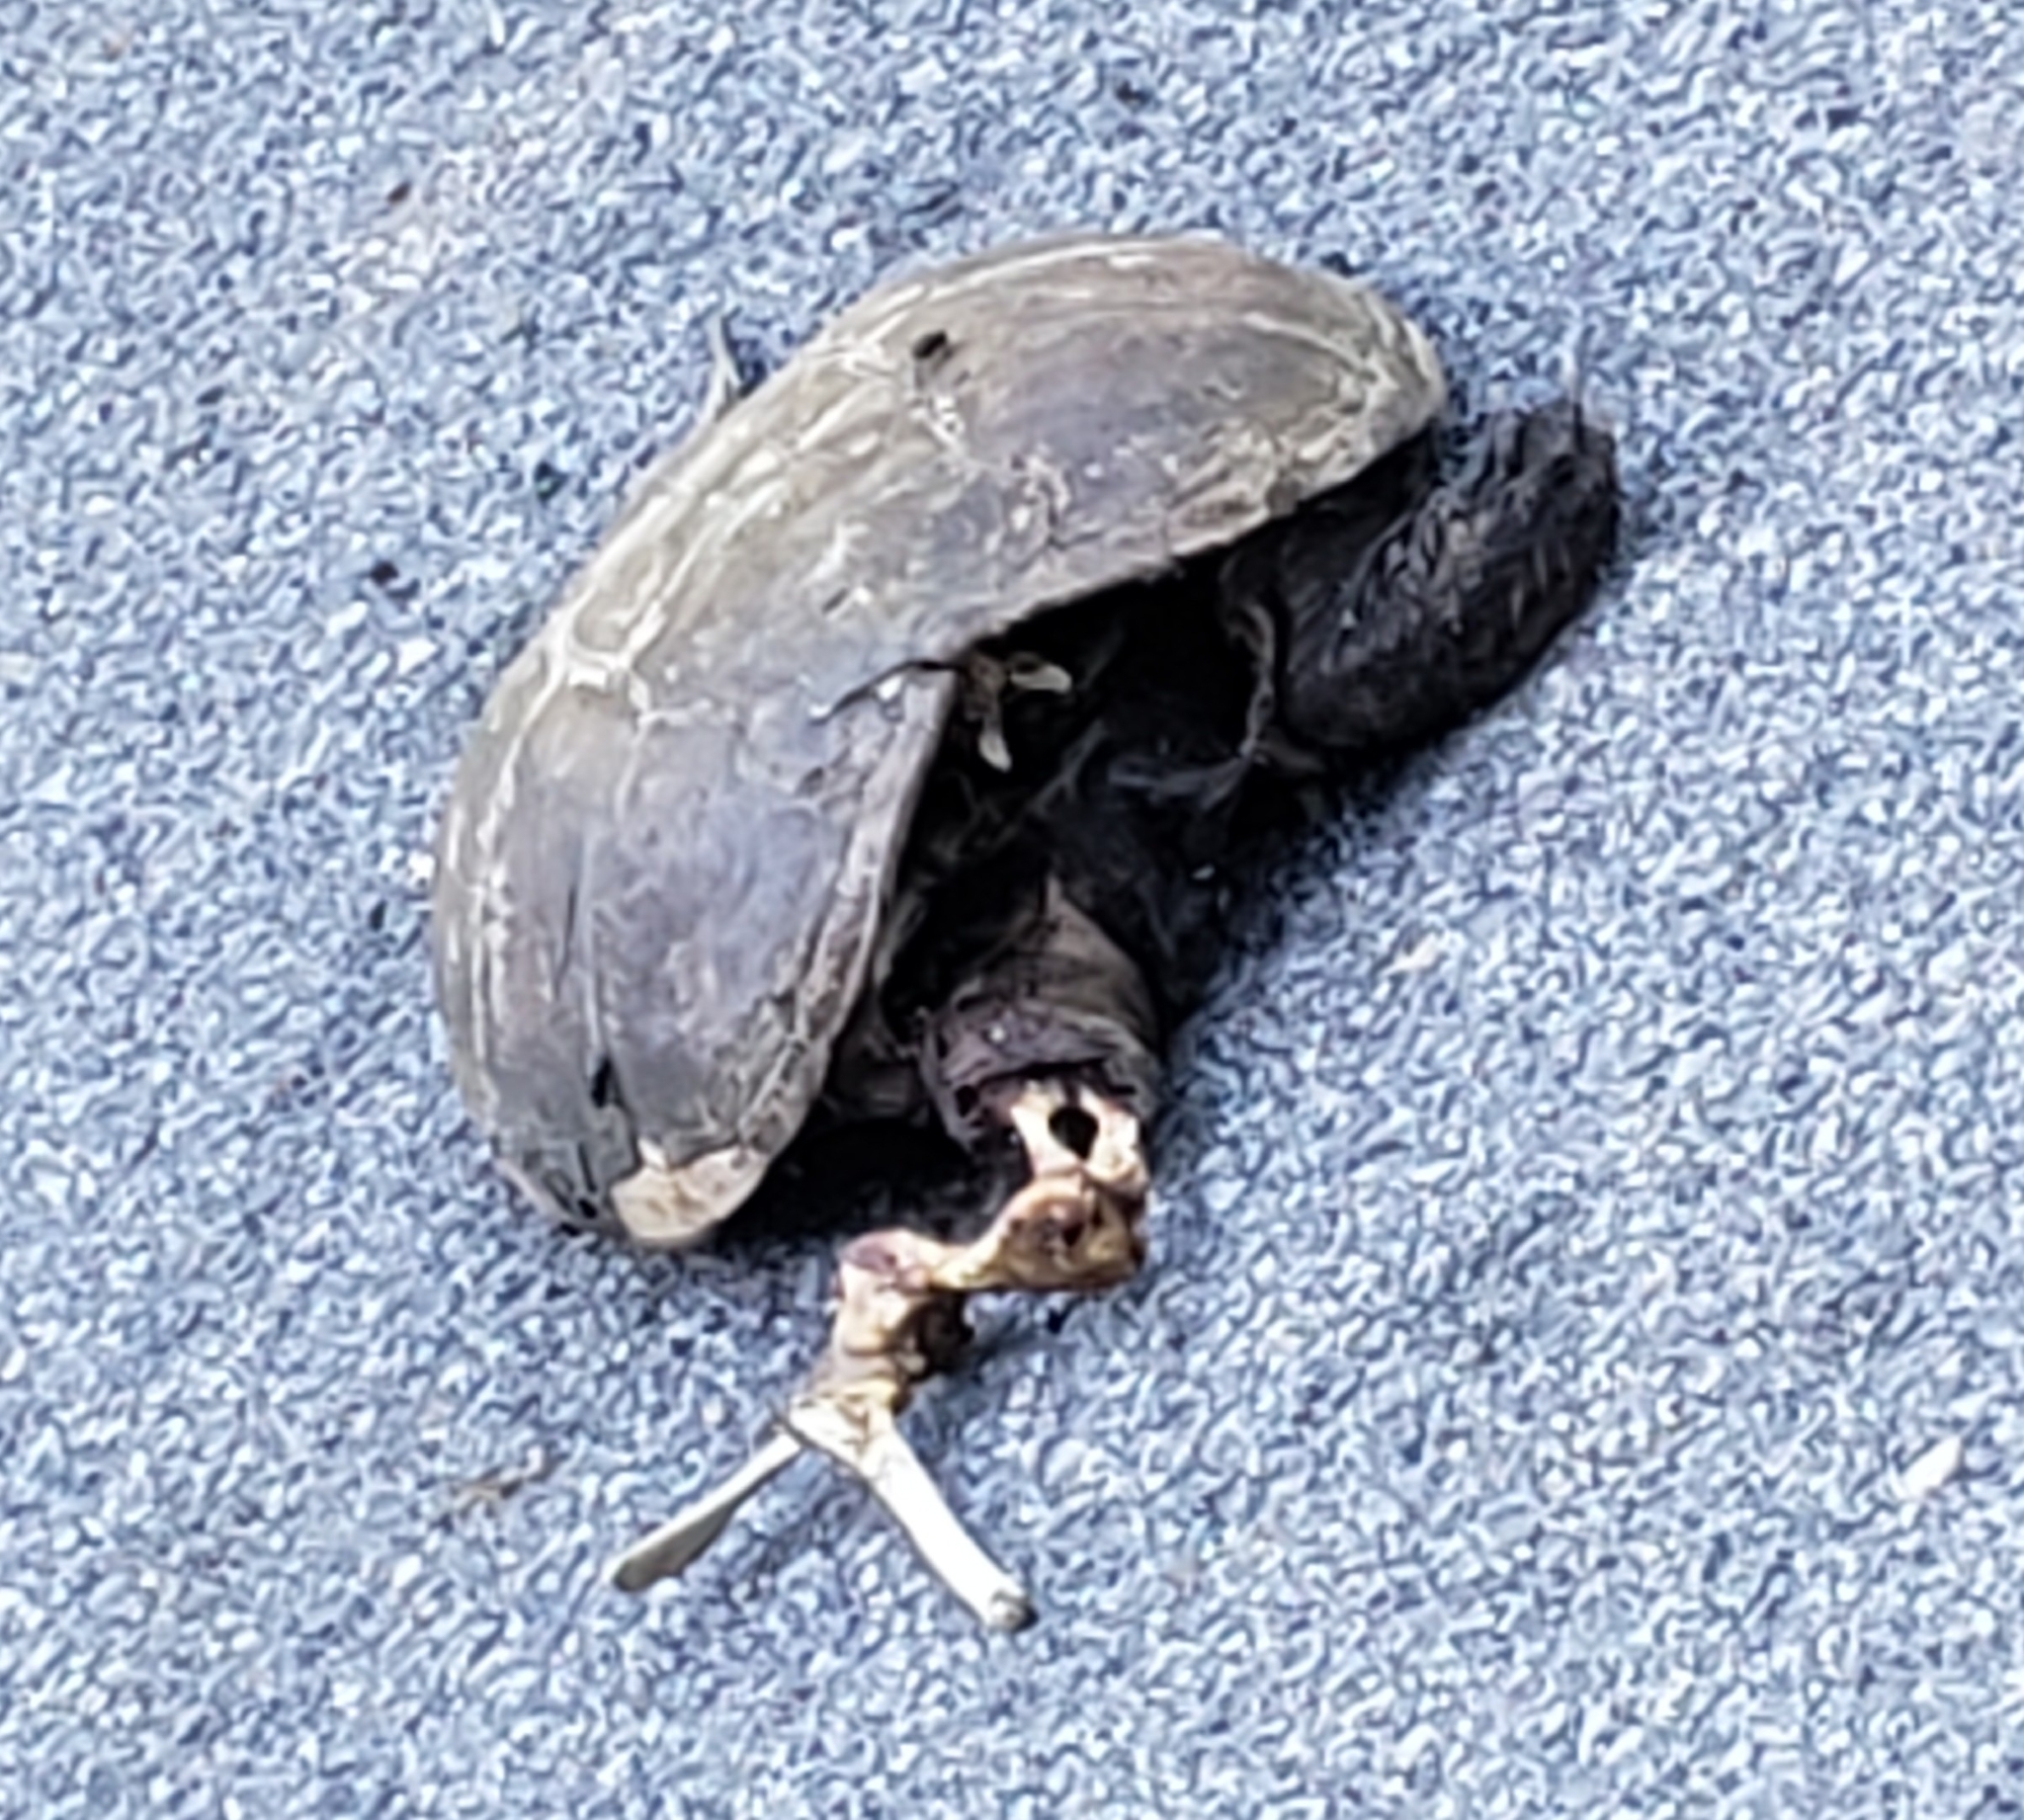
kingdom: Animalia
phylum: Chordata
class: Testudines
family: Chelydridae
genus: Chelydra
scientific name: Chelydra serpentina
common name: Common snapping turtle
